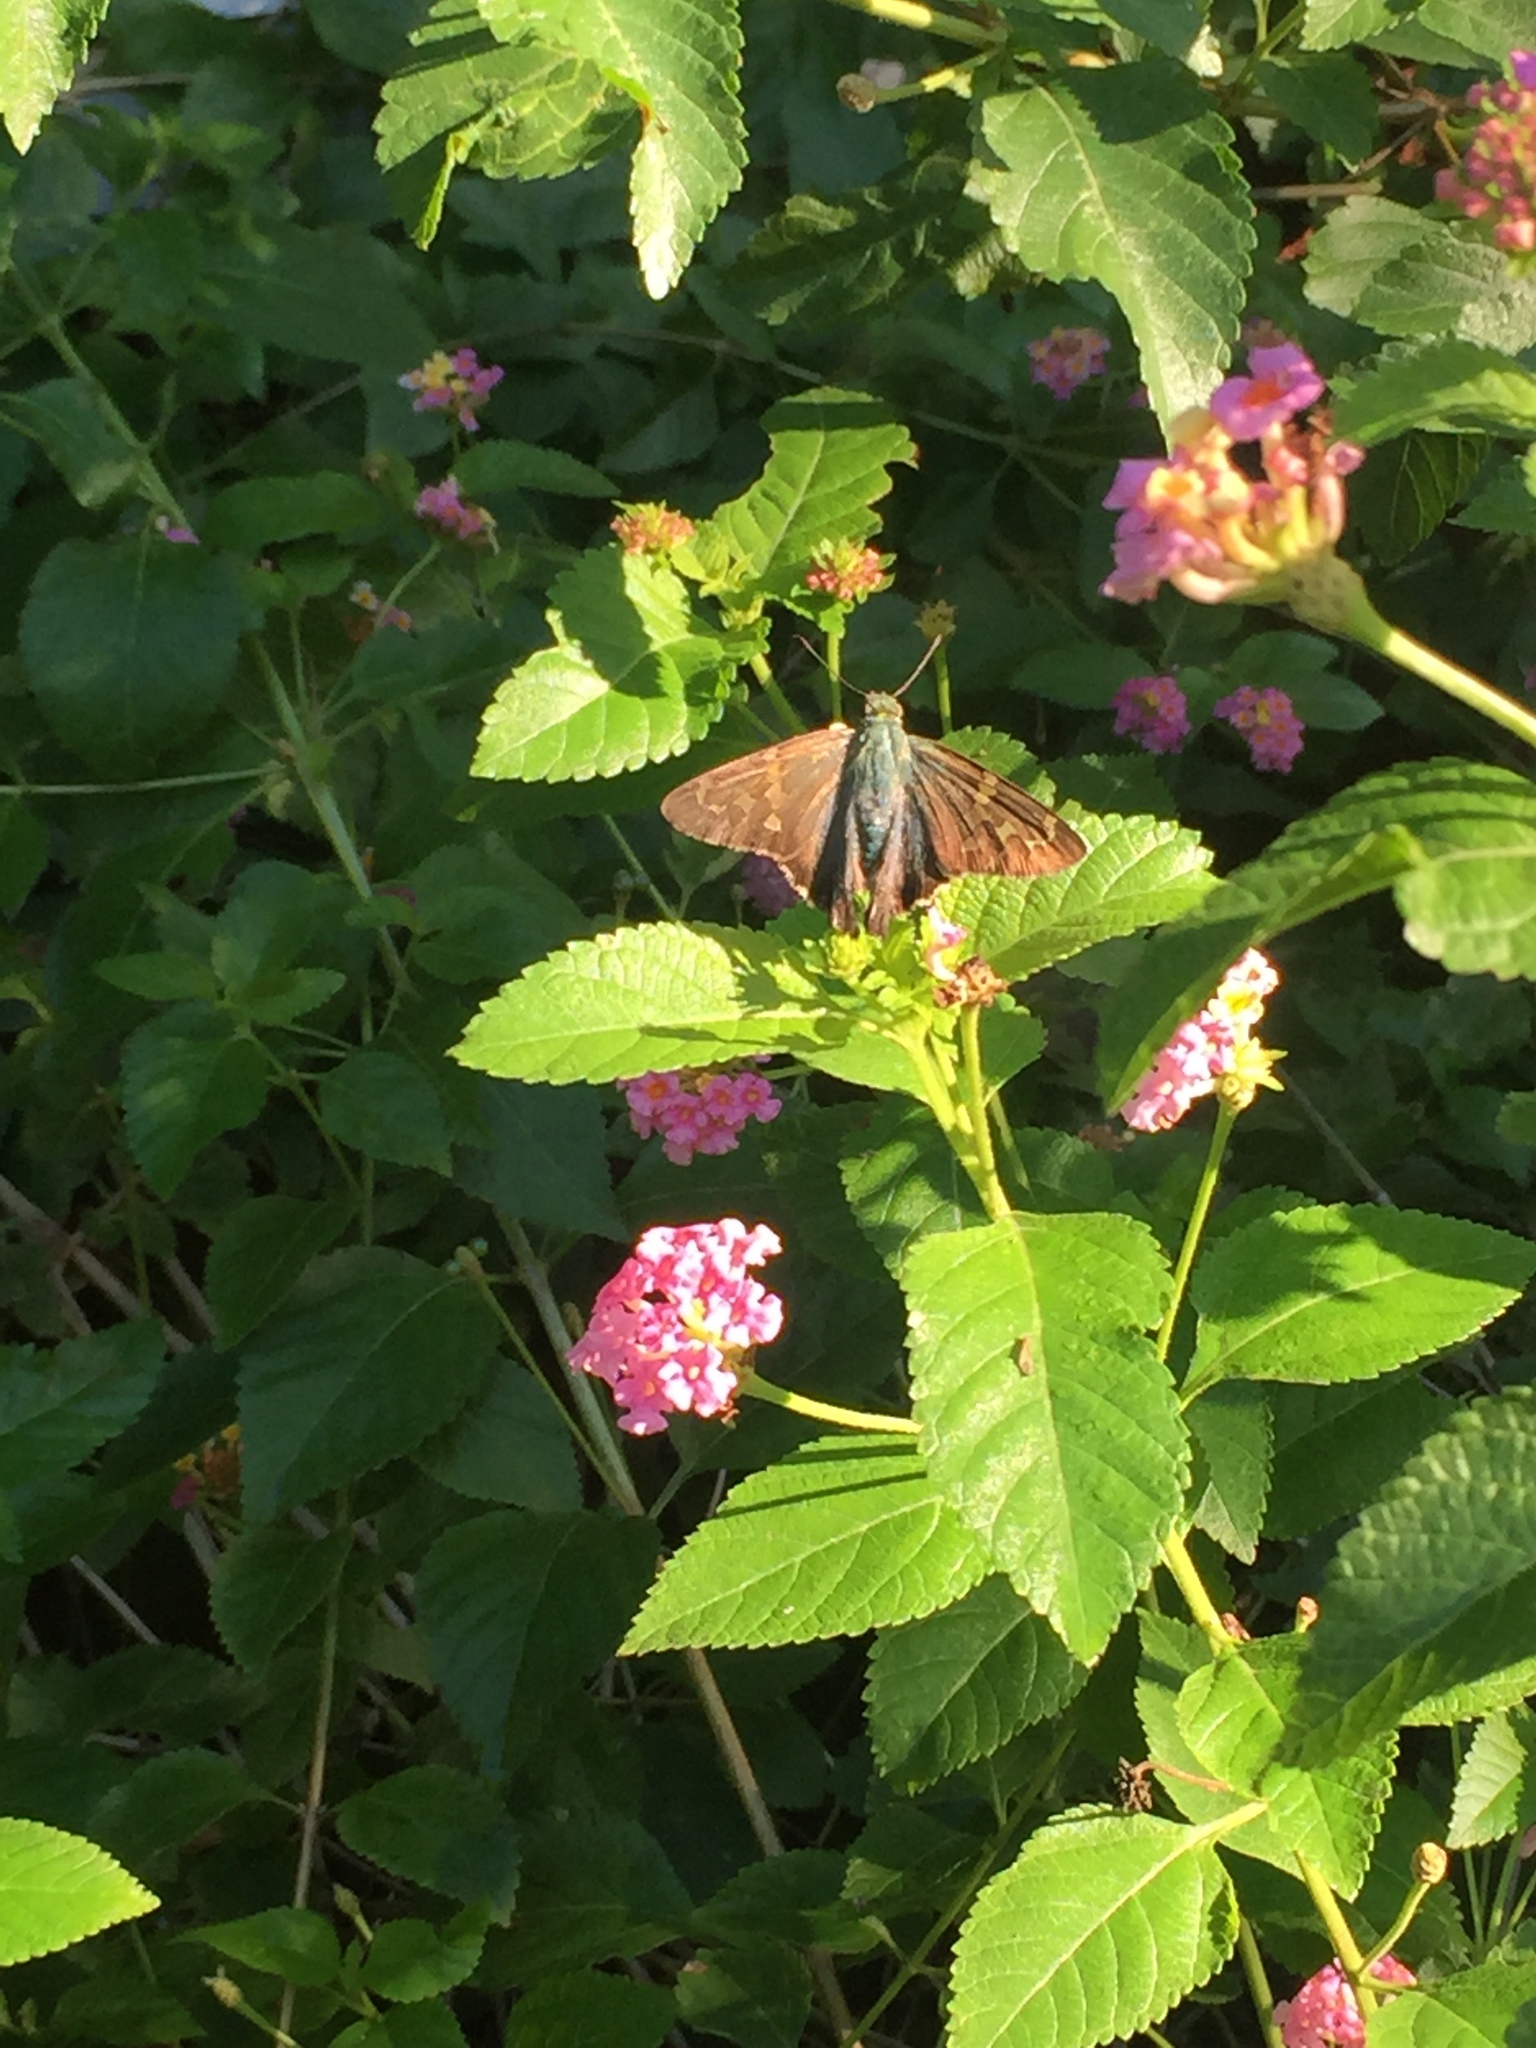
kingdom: Animalia
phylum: Arthropoda
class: Insecta
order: Lepidoptera
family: Hesperiidae
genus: Urbanus
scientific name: Urbanus proteus
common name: Long-tailed skipper
